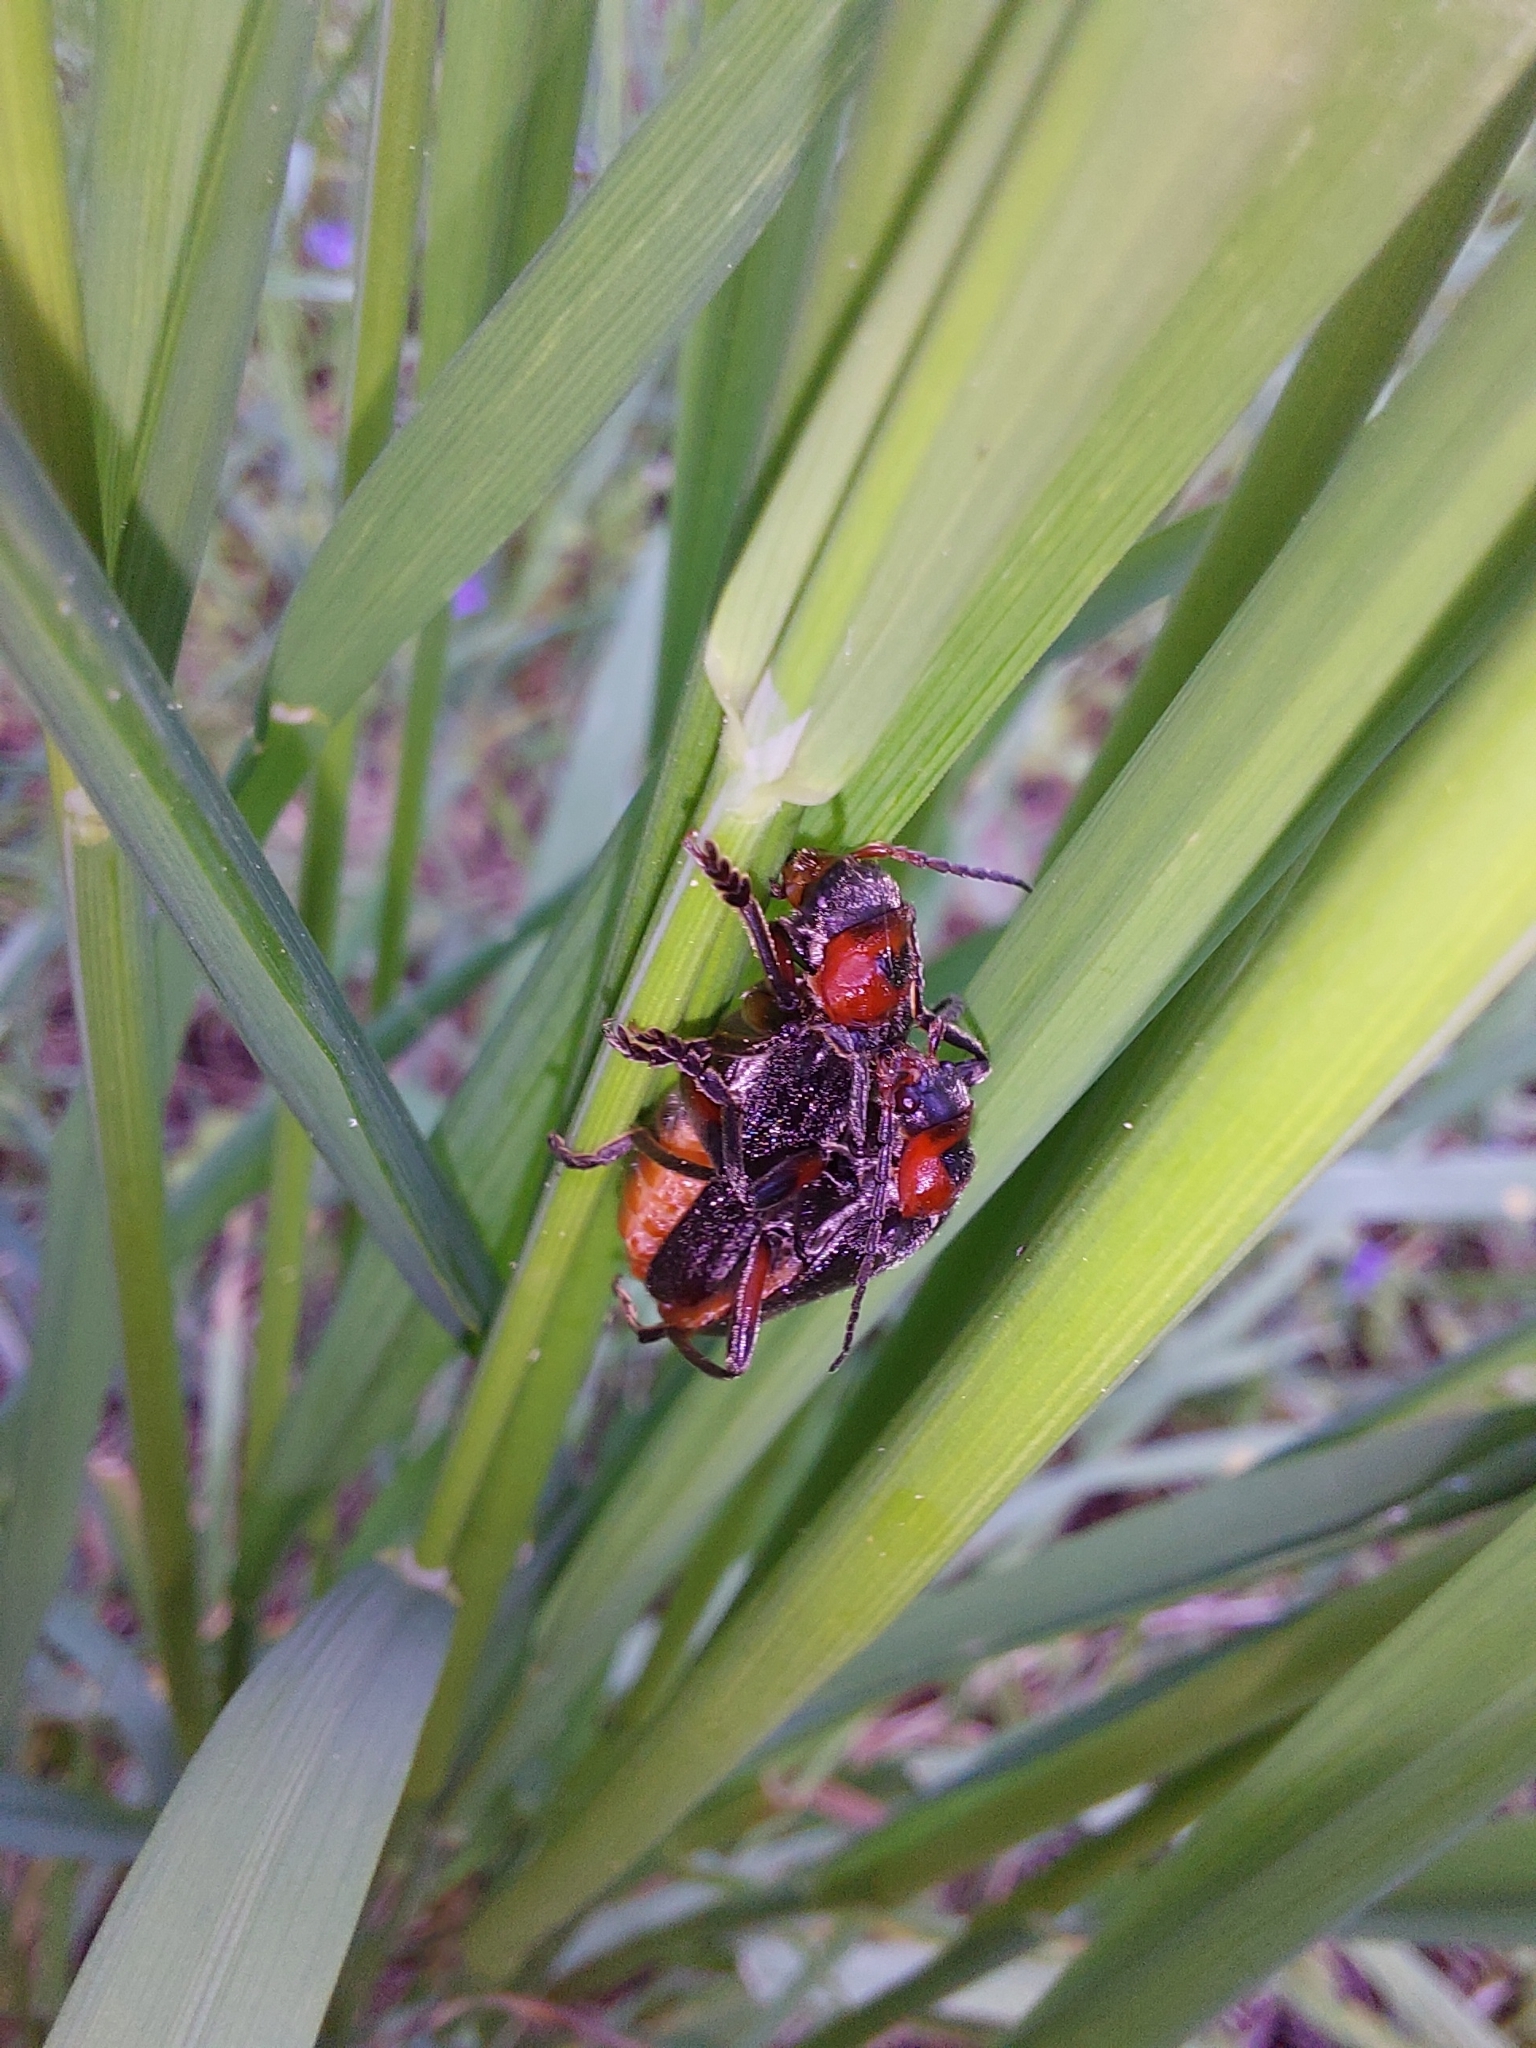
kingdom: Animalia
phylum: Arthropoda
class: Insecta
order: Coleoptera
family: Cantharidae
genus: Cantharis
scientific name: Cantharis rustica
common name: Soldier beetle
